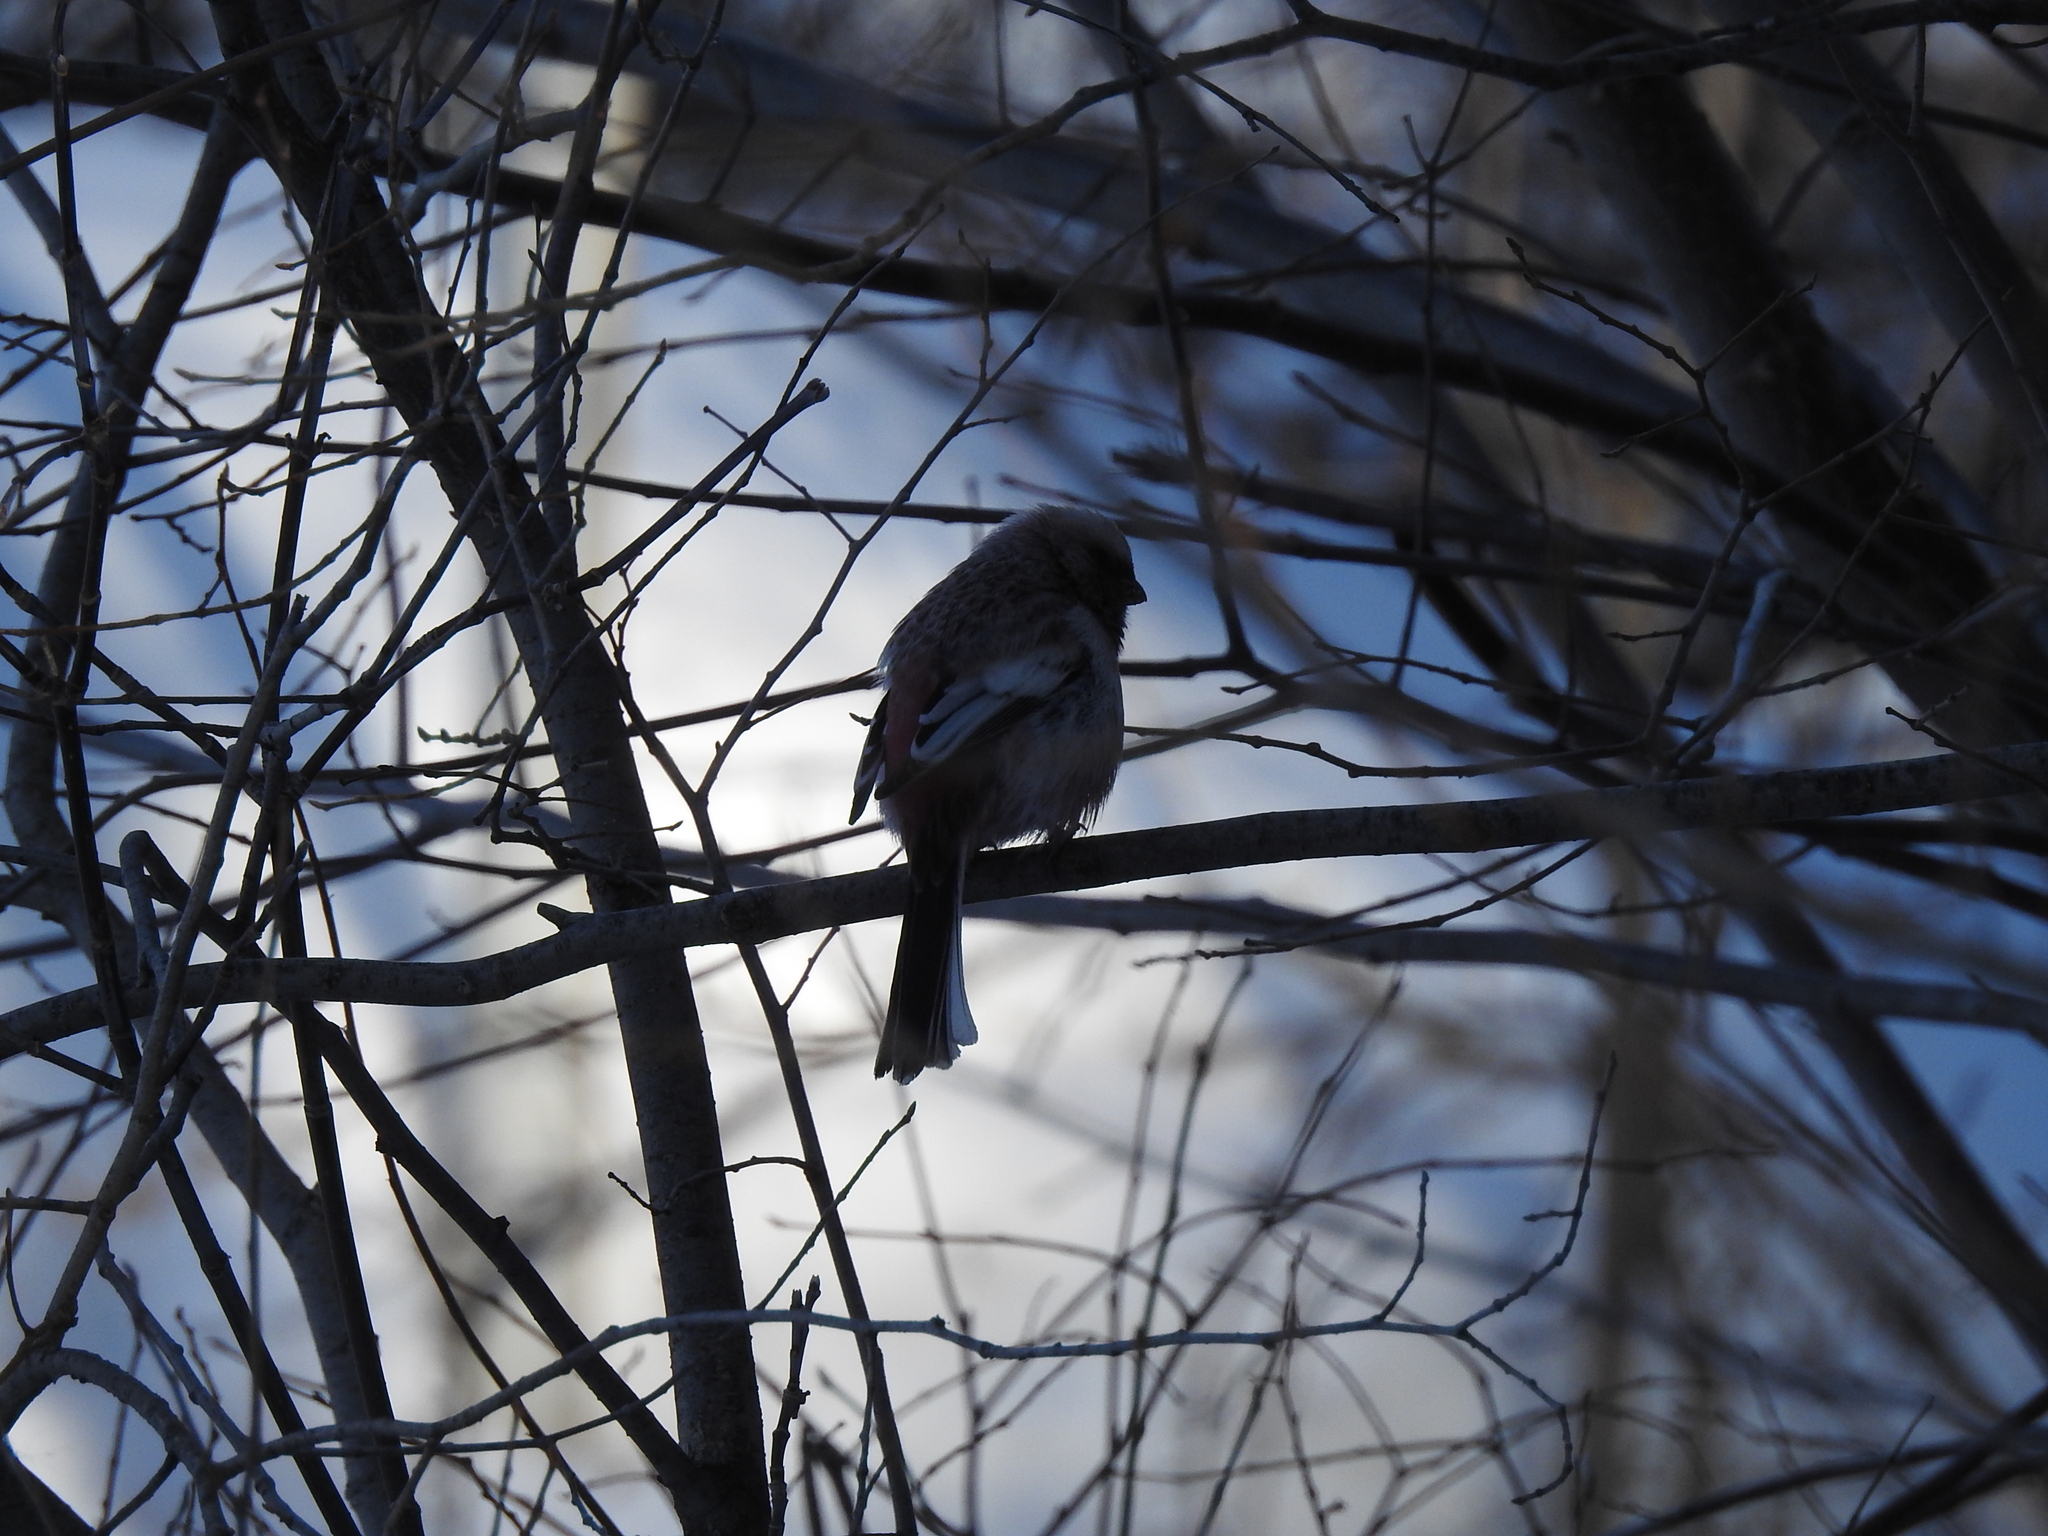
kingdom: Animalia
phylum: Chordata
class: Aves
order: Passeriformes
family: Fringillidae
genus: Carpodacus
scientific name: Carpodacus sibiricus
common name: Long-tailed rosefinch
